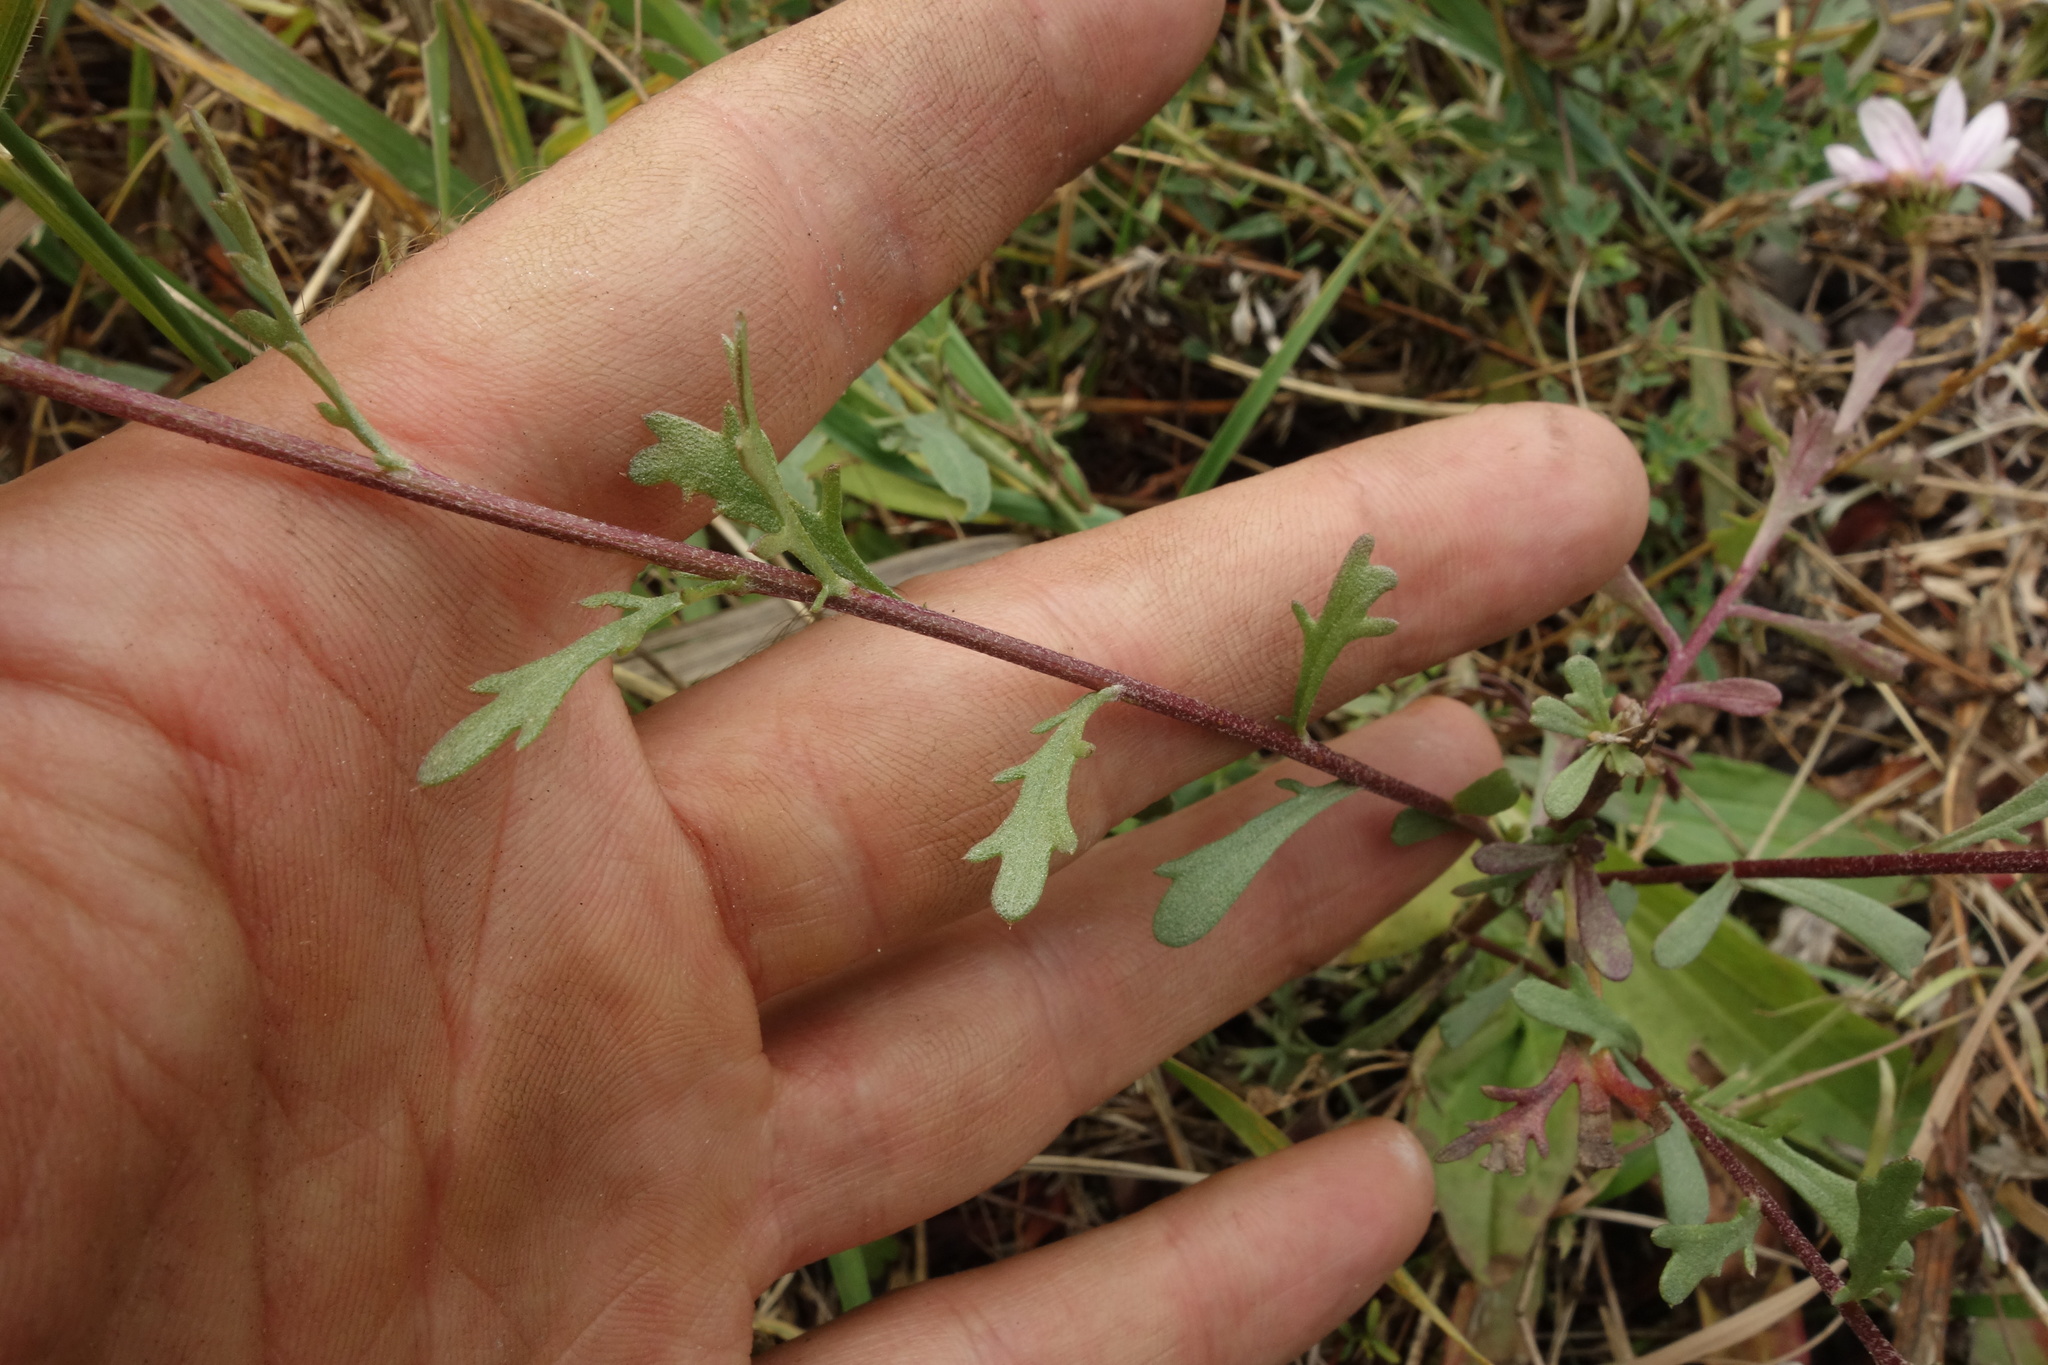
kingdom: Plantae
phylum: Tracheophyta
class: Magnoliopsida
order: Asterales
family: Asteraceae
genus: Chrysanthemum
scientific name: Chrysanthemum zawadzkii
